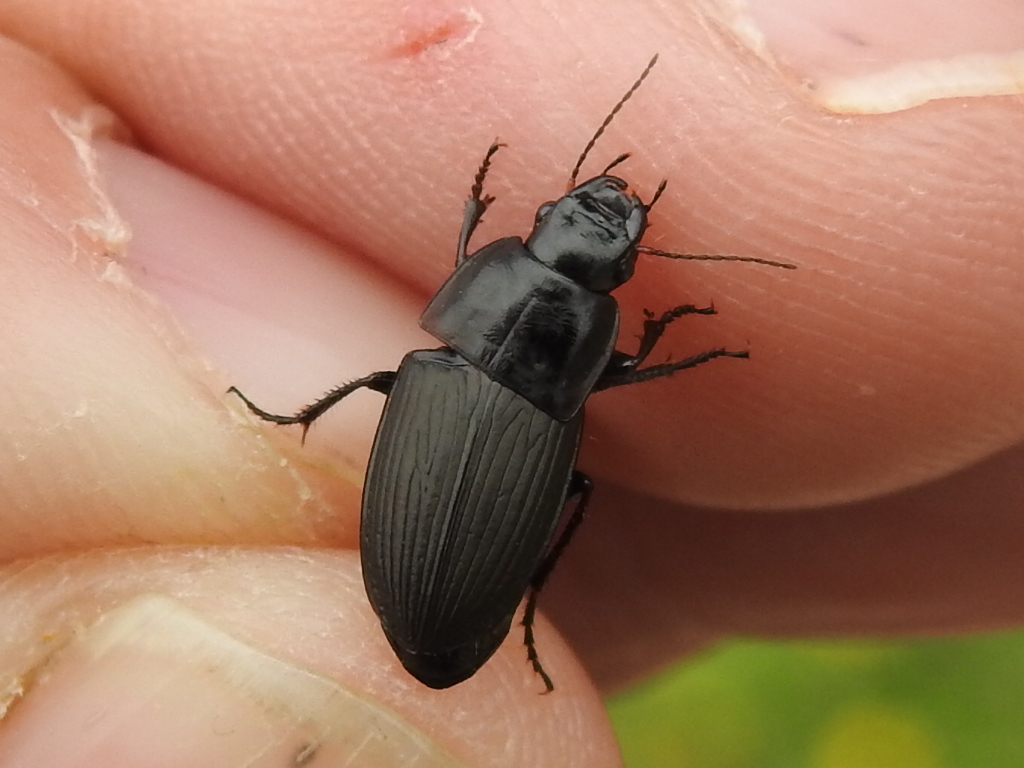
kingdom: Animalia
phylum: Arthropoda
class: Insecta
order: Coleoptera
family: Carabidae
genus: Harpalus
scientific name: Harpalus caliginosus
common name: Murky ground beetle
